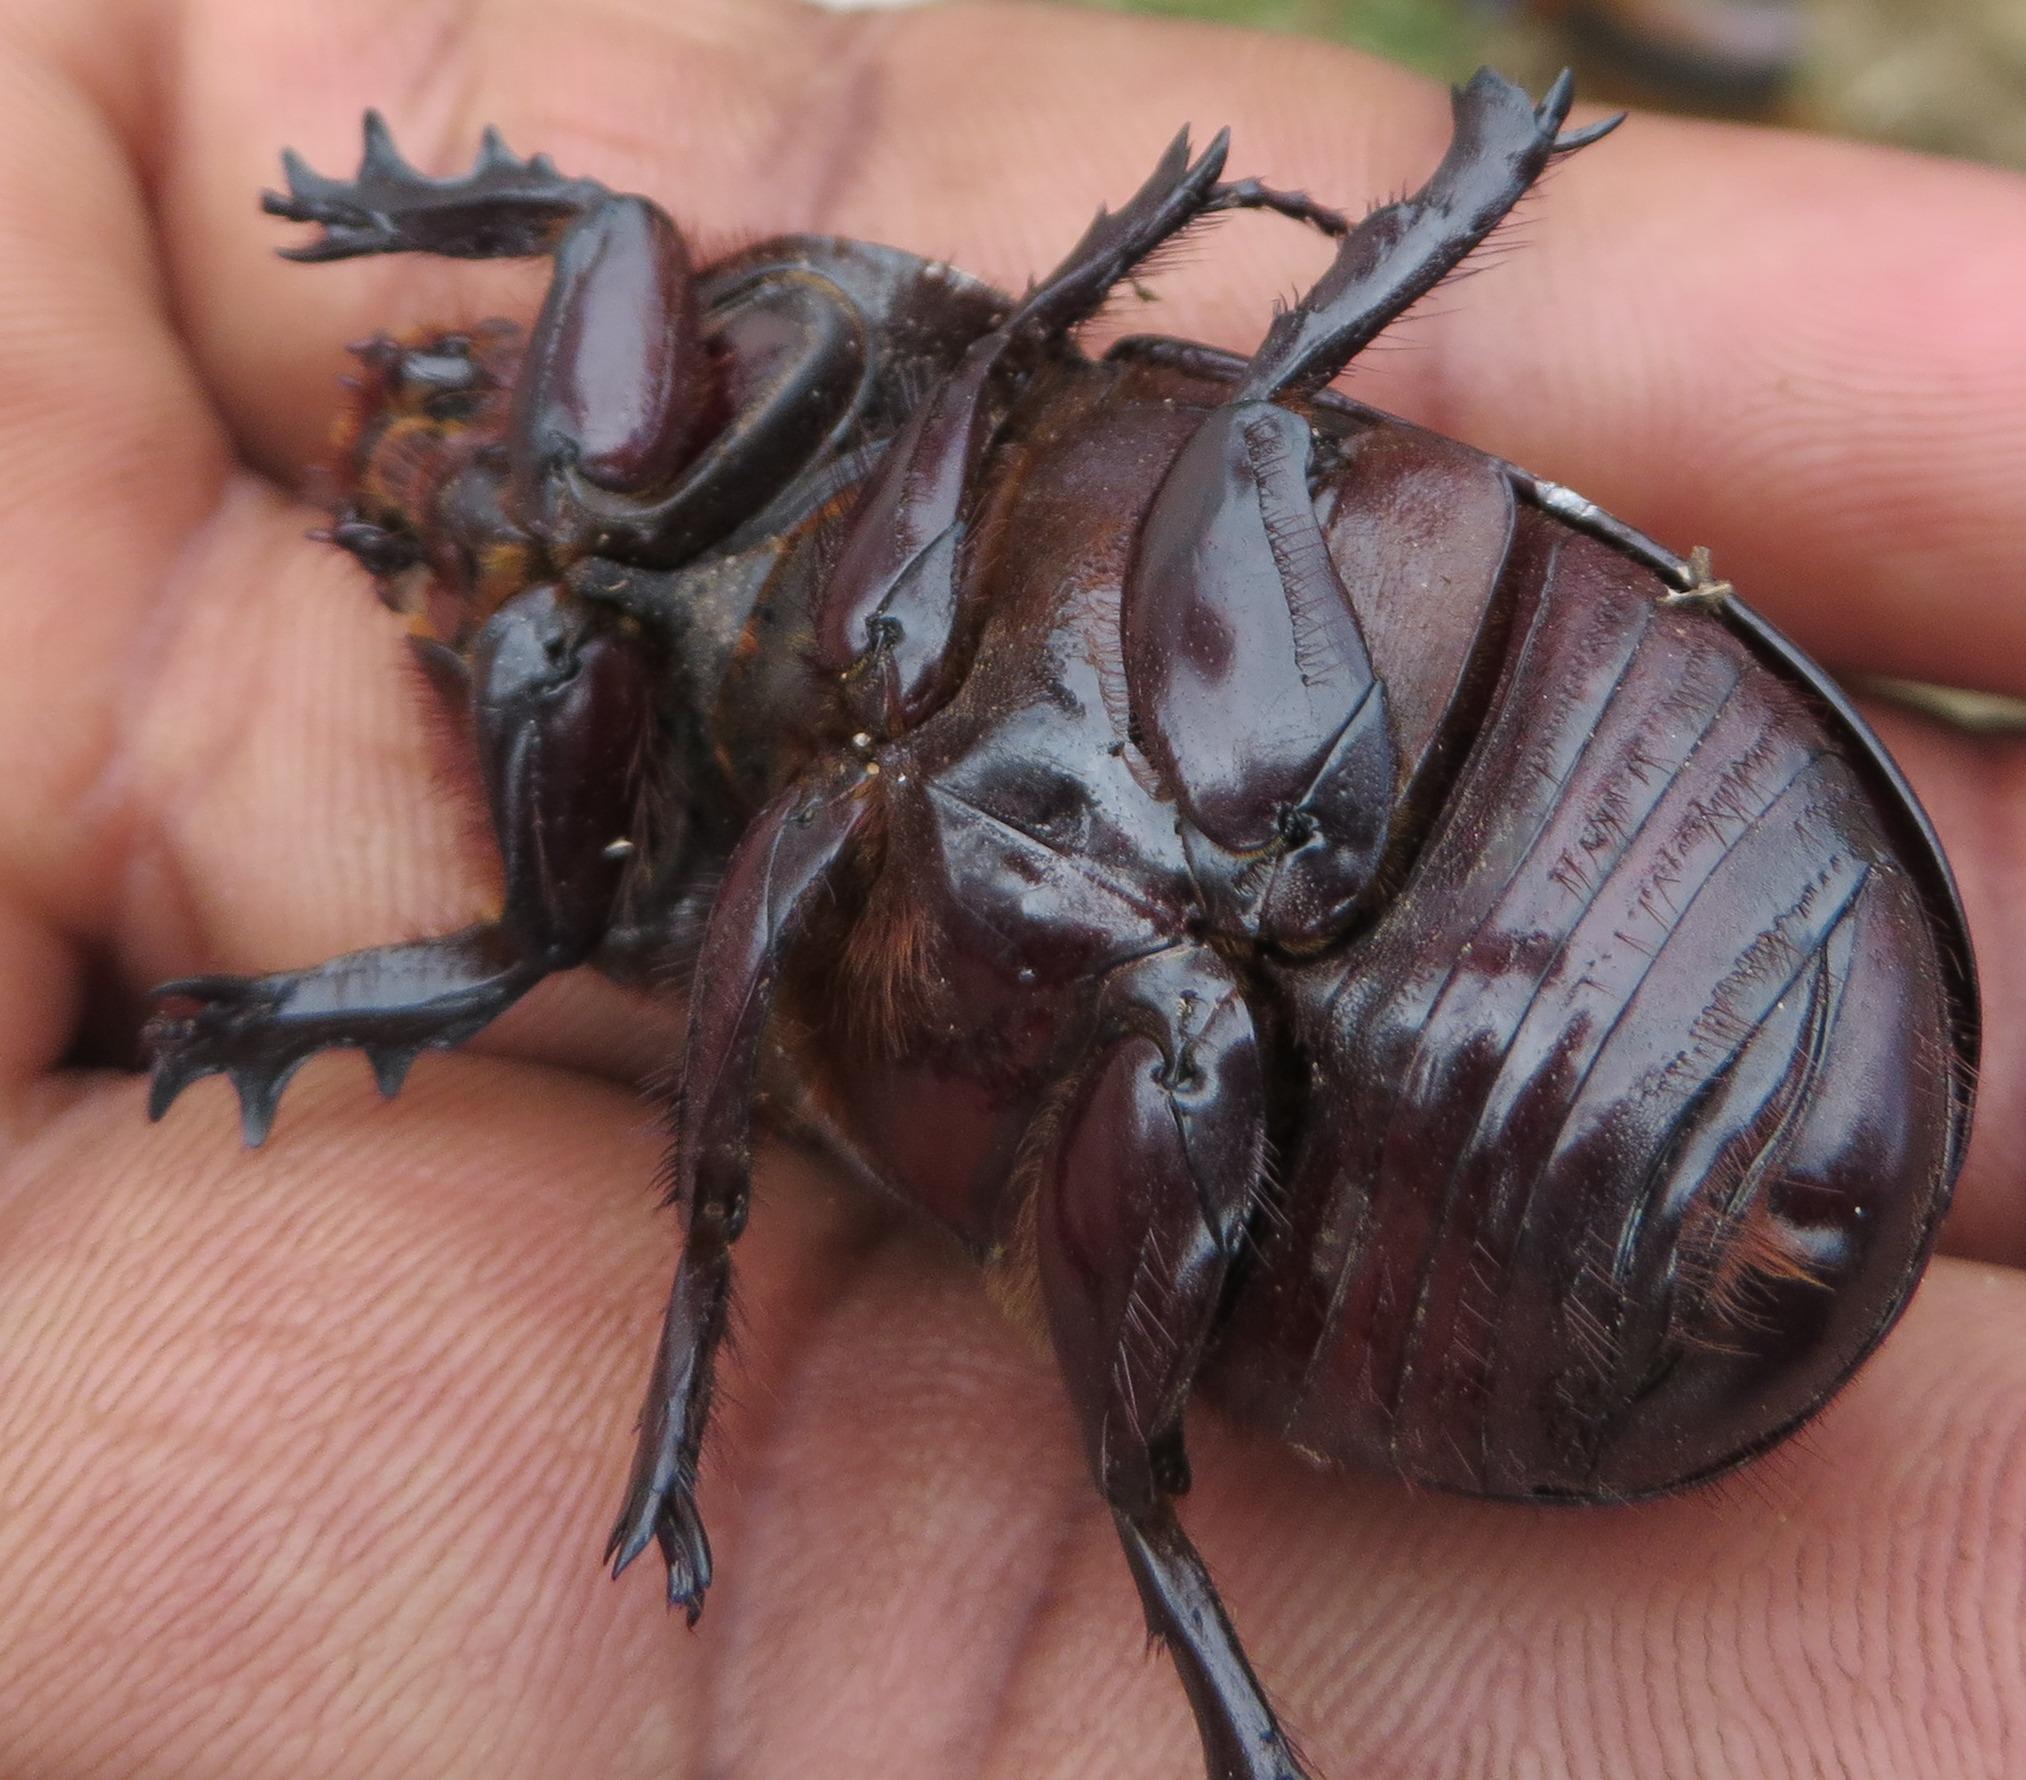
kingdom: Animalia
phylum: Arthropoda
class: Insecta
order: Coleoptera
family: Scarabaeidae
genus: Oryctes
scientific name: Oryctes boas
